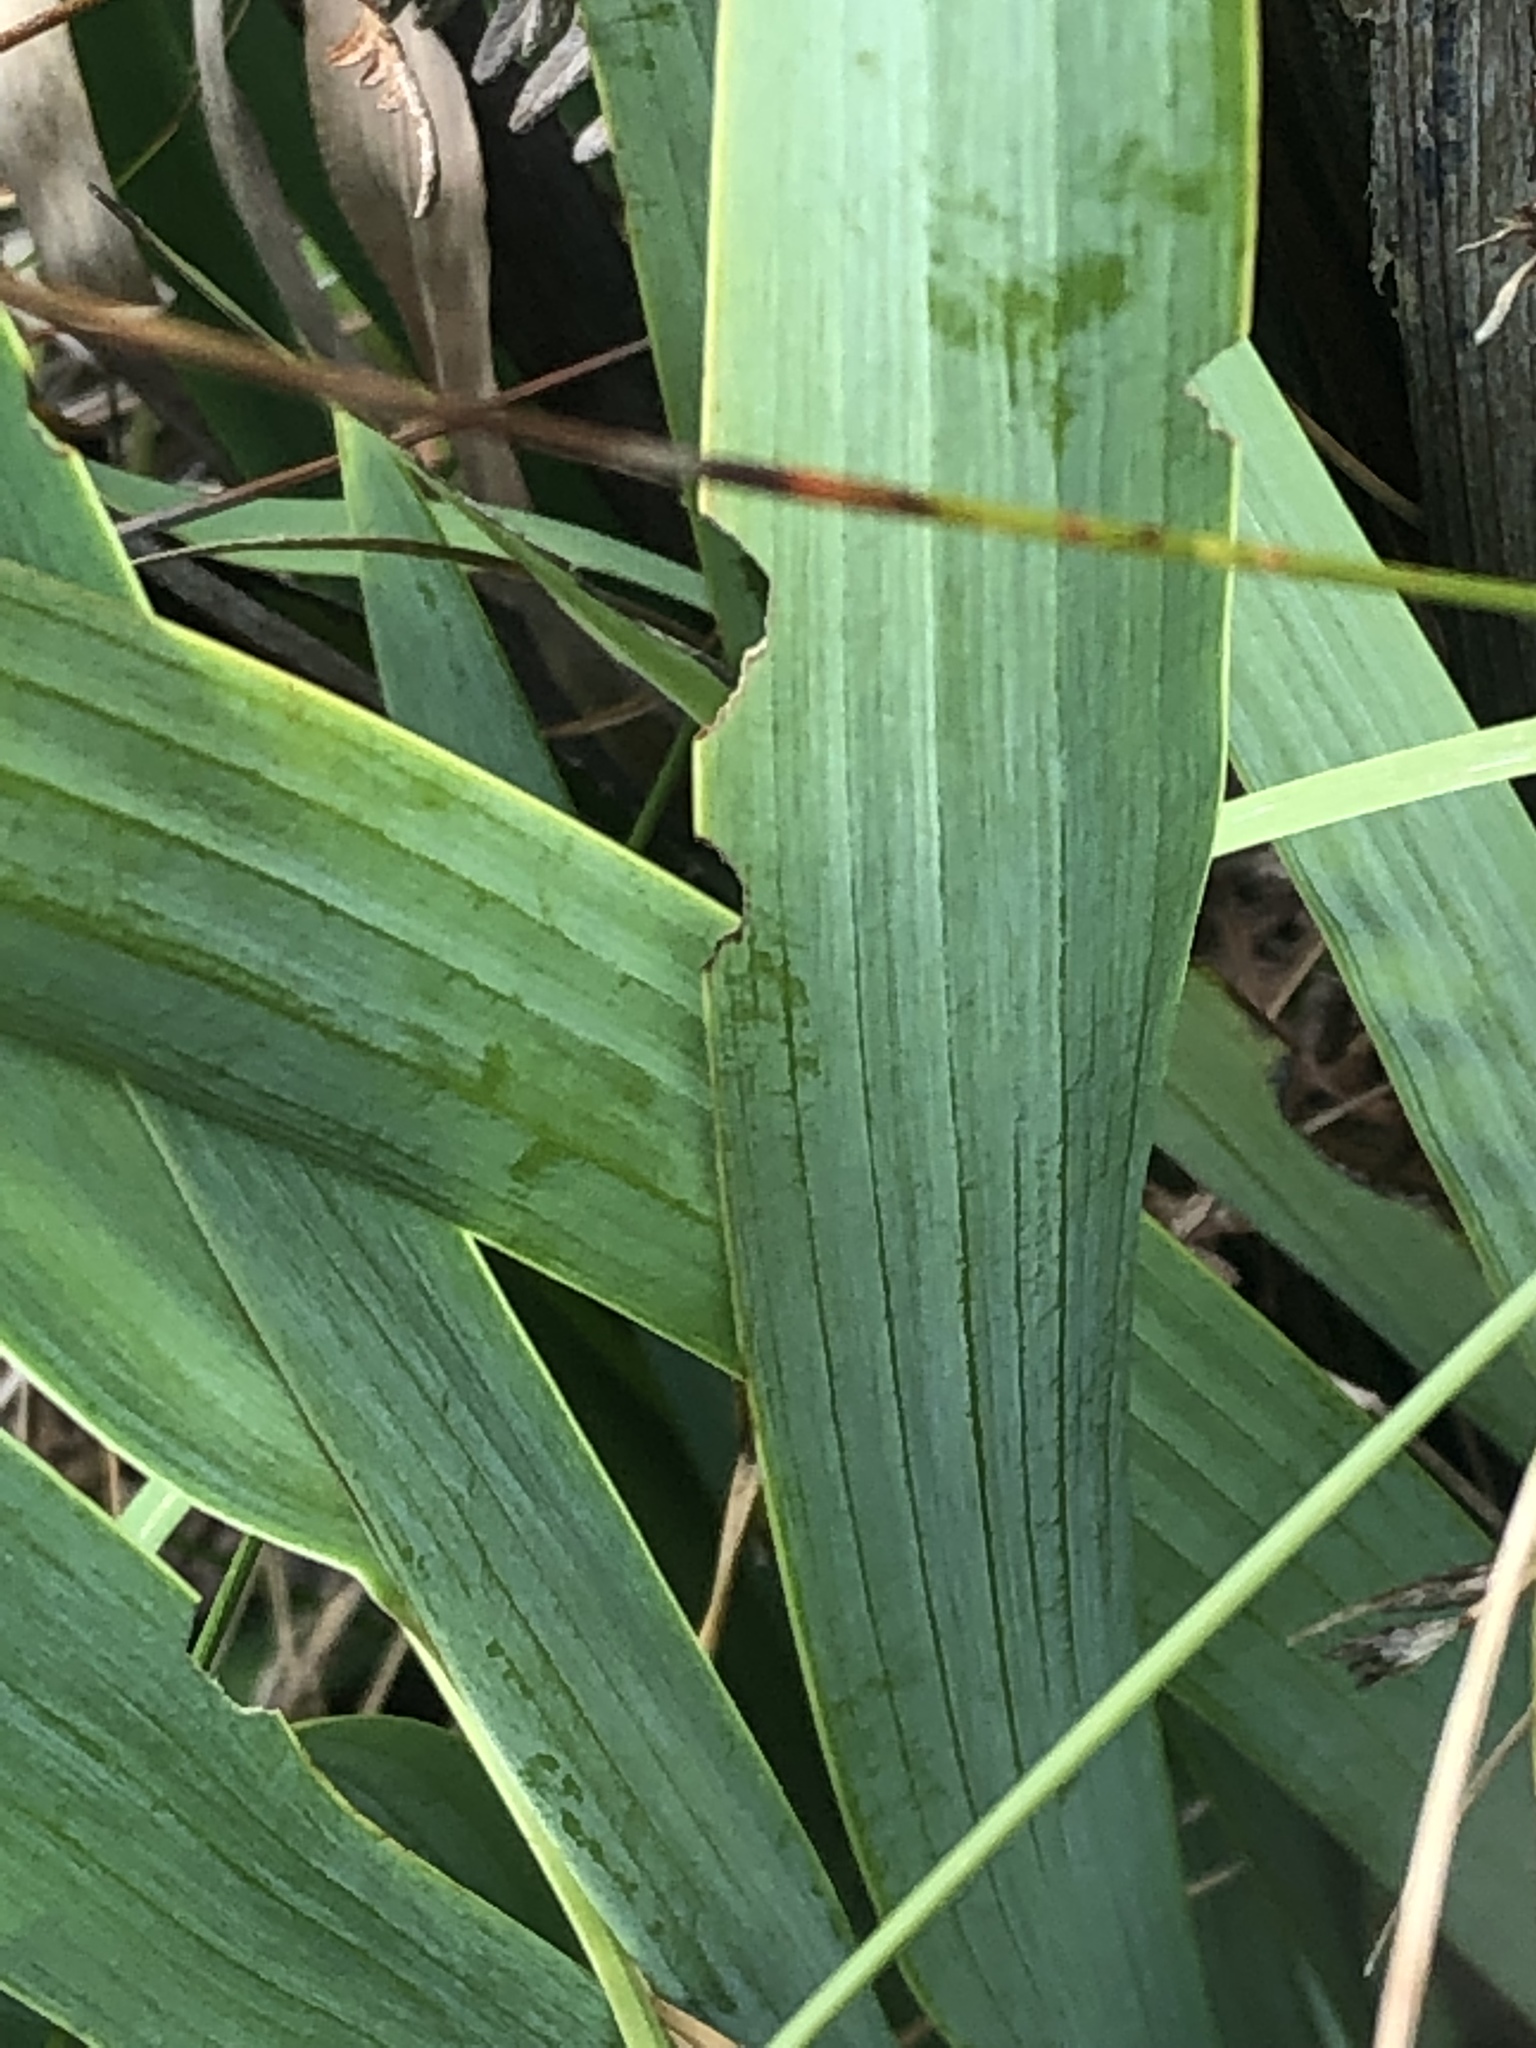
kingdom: Plantae
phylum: Tracheophyta
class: Liliopsida
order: Asparagales
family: Iridaceae
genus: Crocosmia
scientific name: Crocosmia crocosmiiflora
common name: Montbretia
